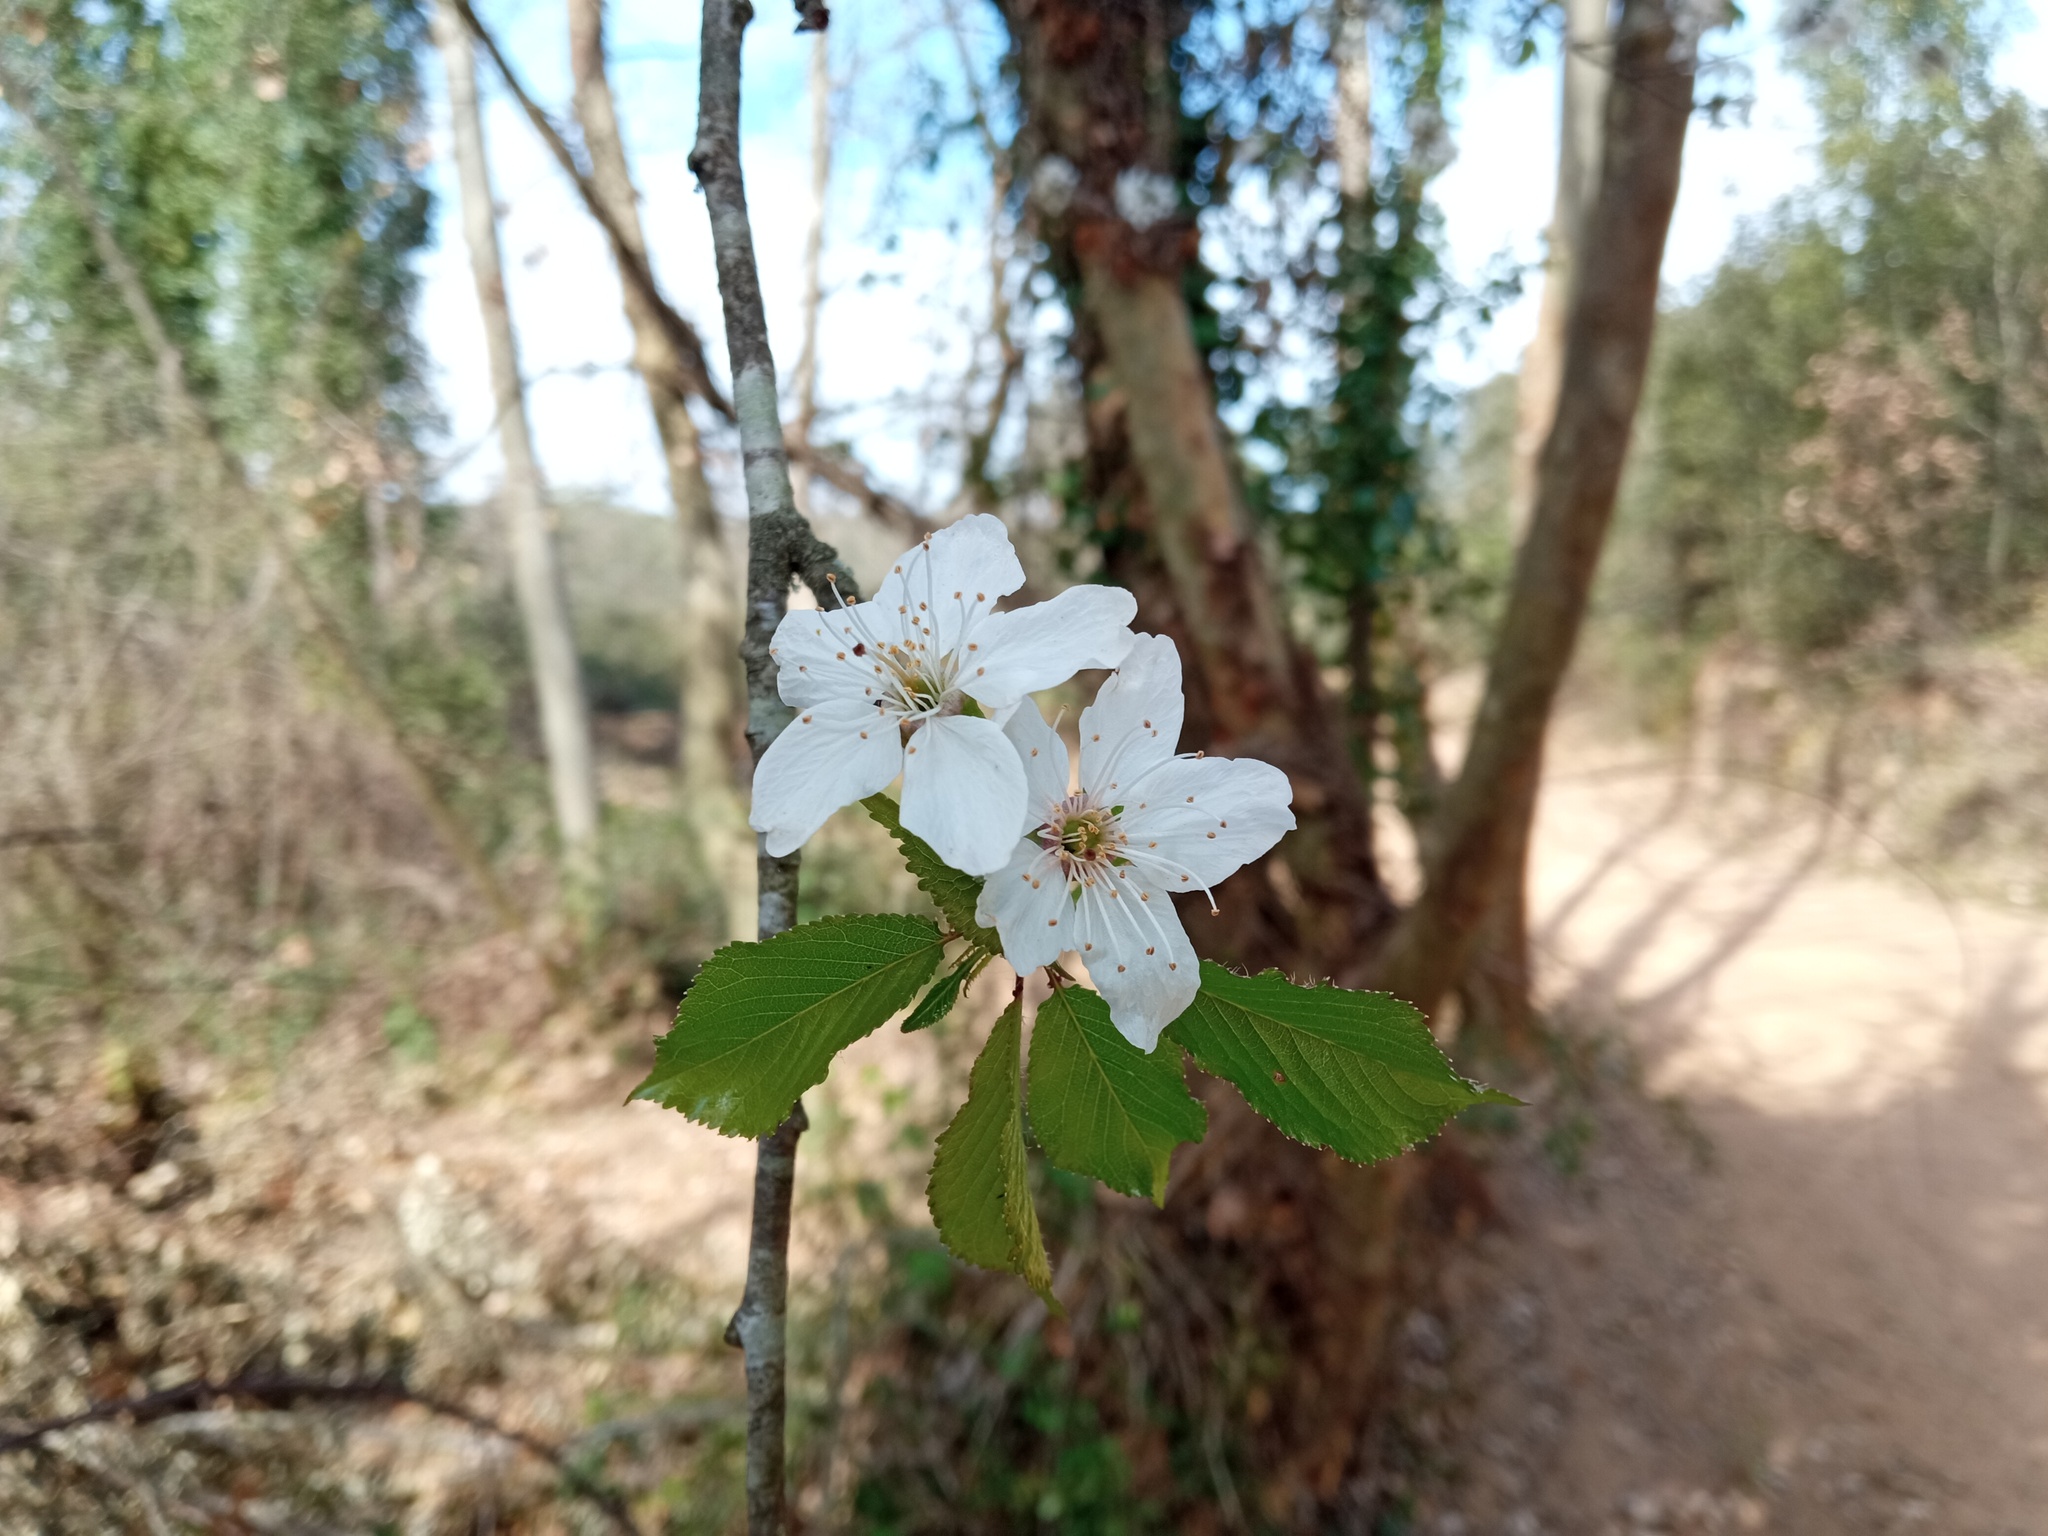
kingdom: Plantae
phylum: Tracheophyta
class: Magnoliopsida
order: Rosales
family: Rosaceae
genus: Prunus
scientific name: Prunus avium
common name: Sweet cherry
